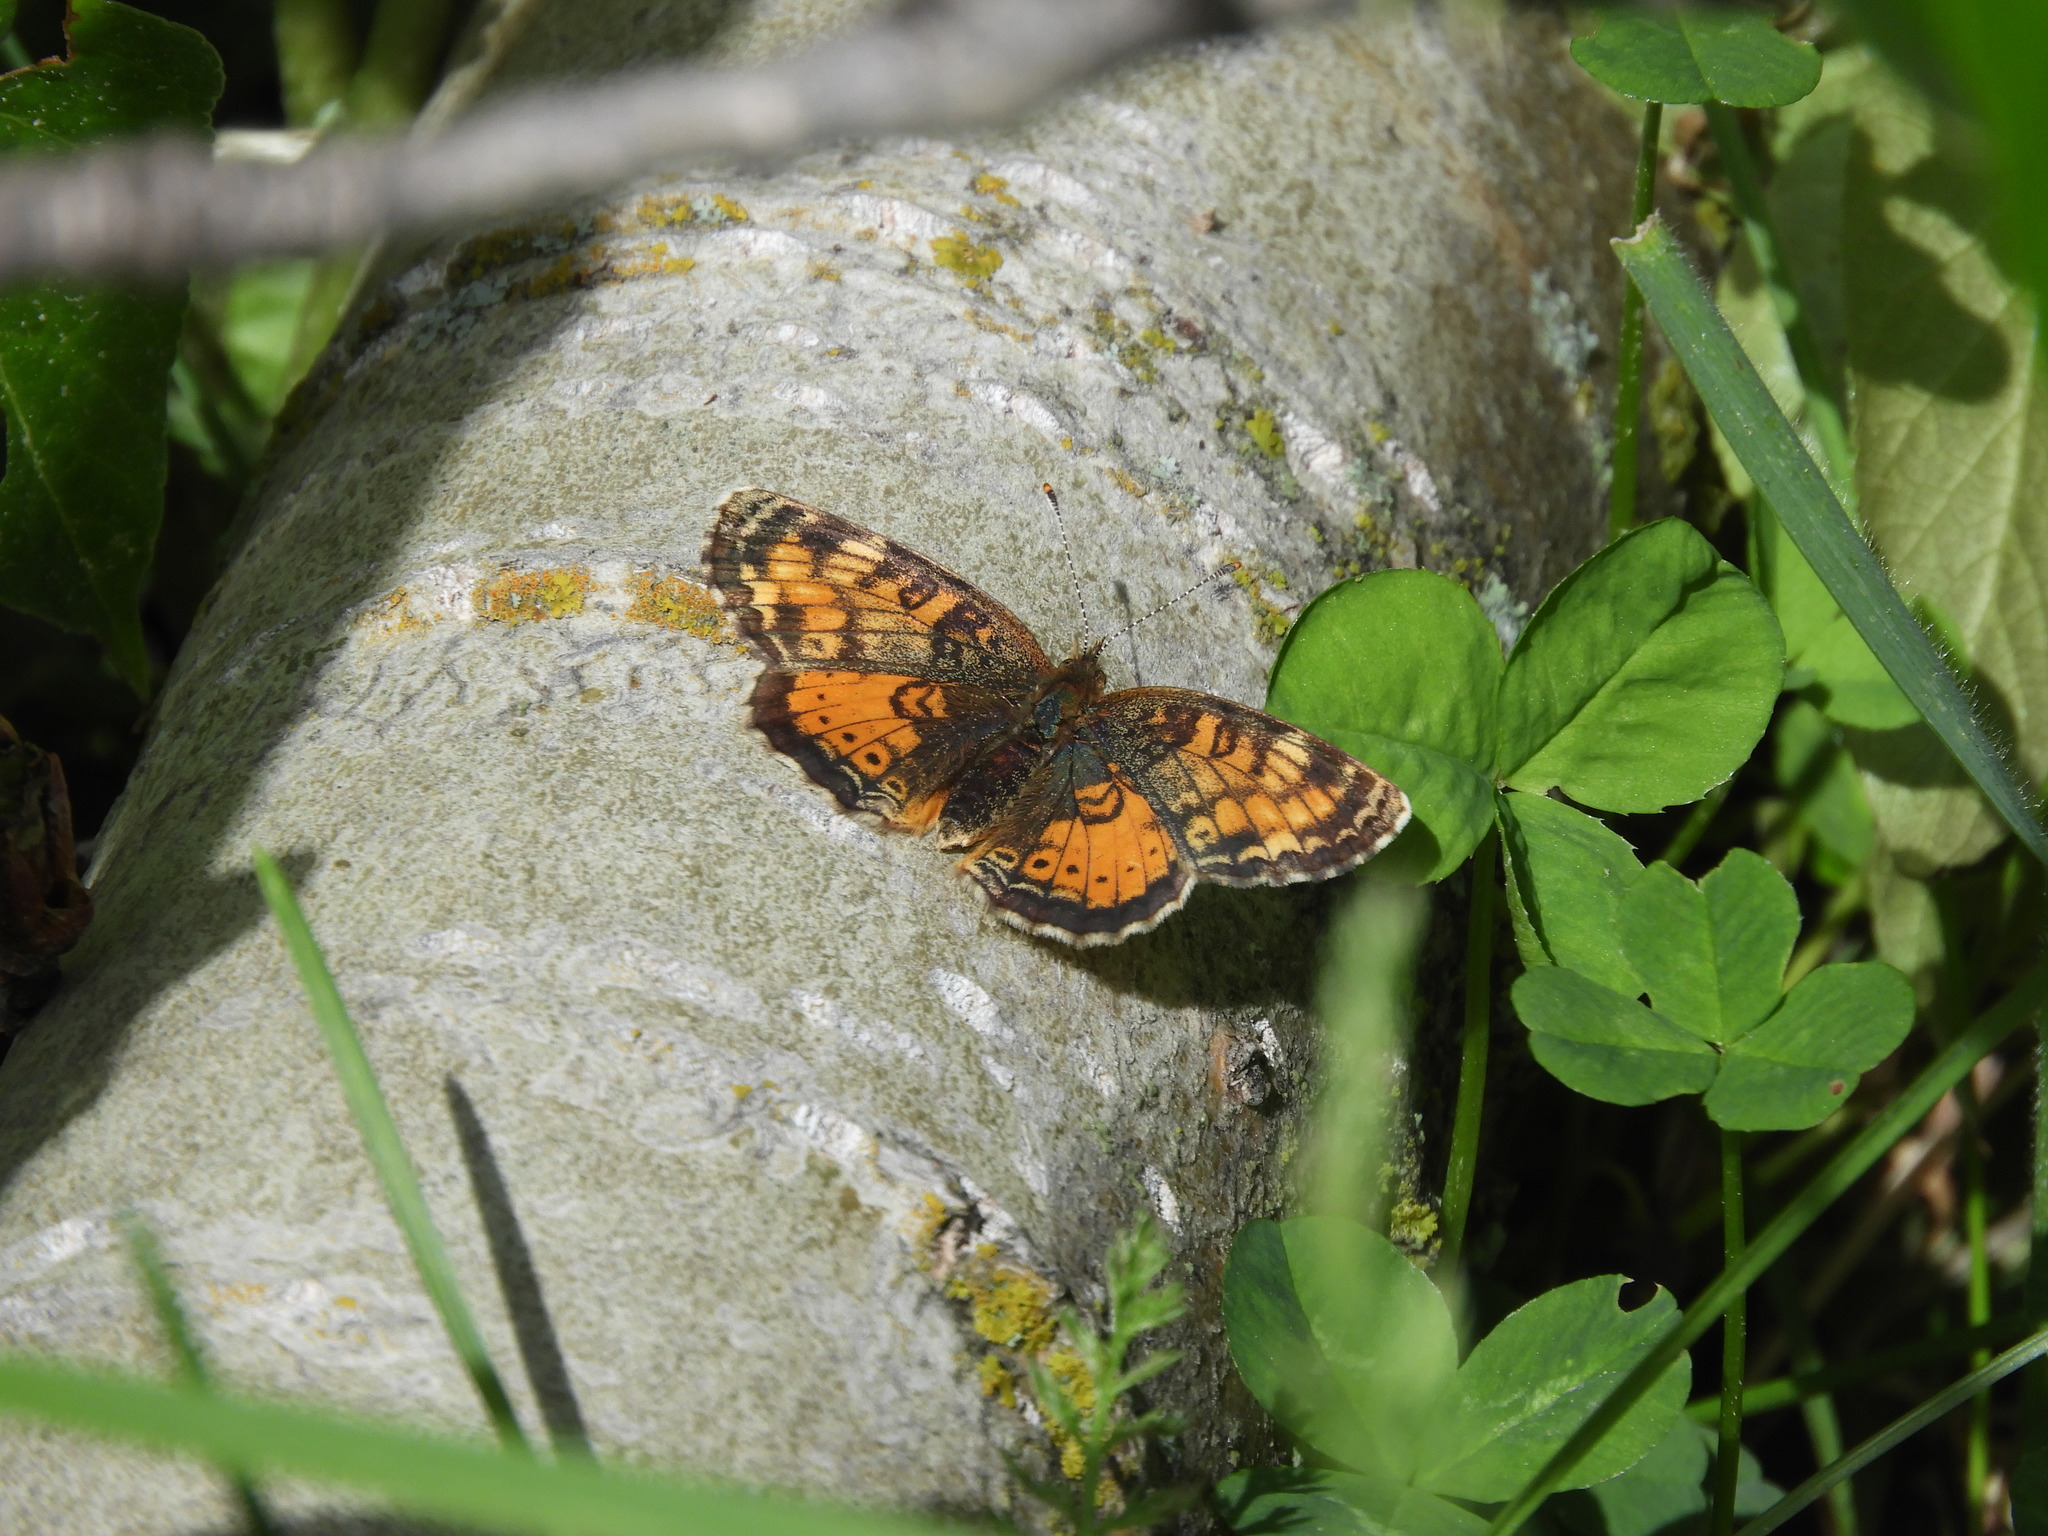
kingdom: Animalia
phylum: Arthropoda
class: Insecta
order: Lepidoptera
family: Nymphalidae
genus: Phyciodes
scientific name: Phyciodes tharos
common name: Pearl crescent
